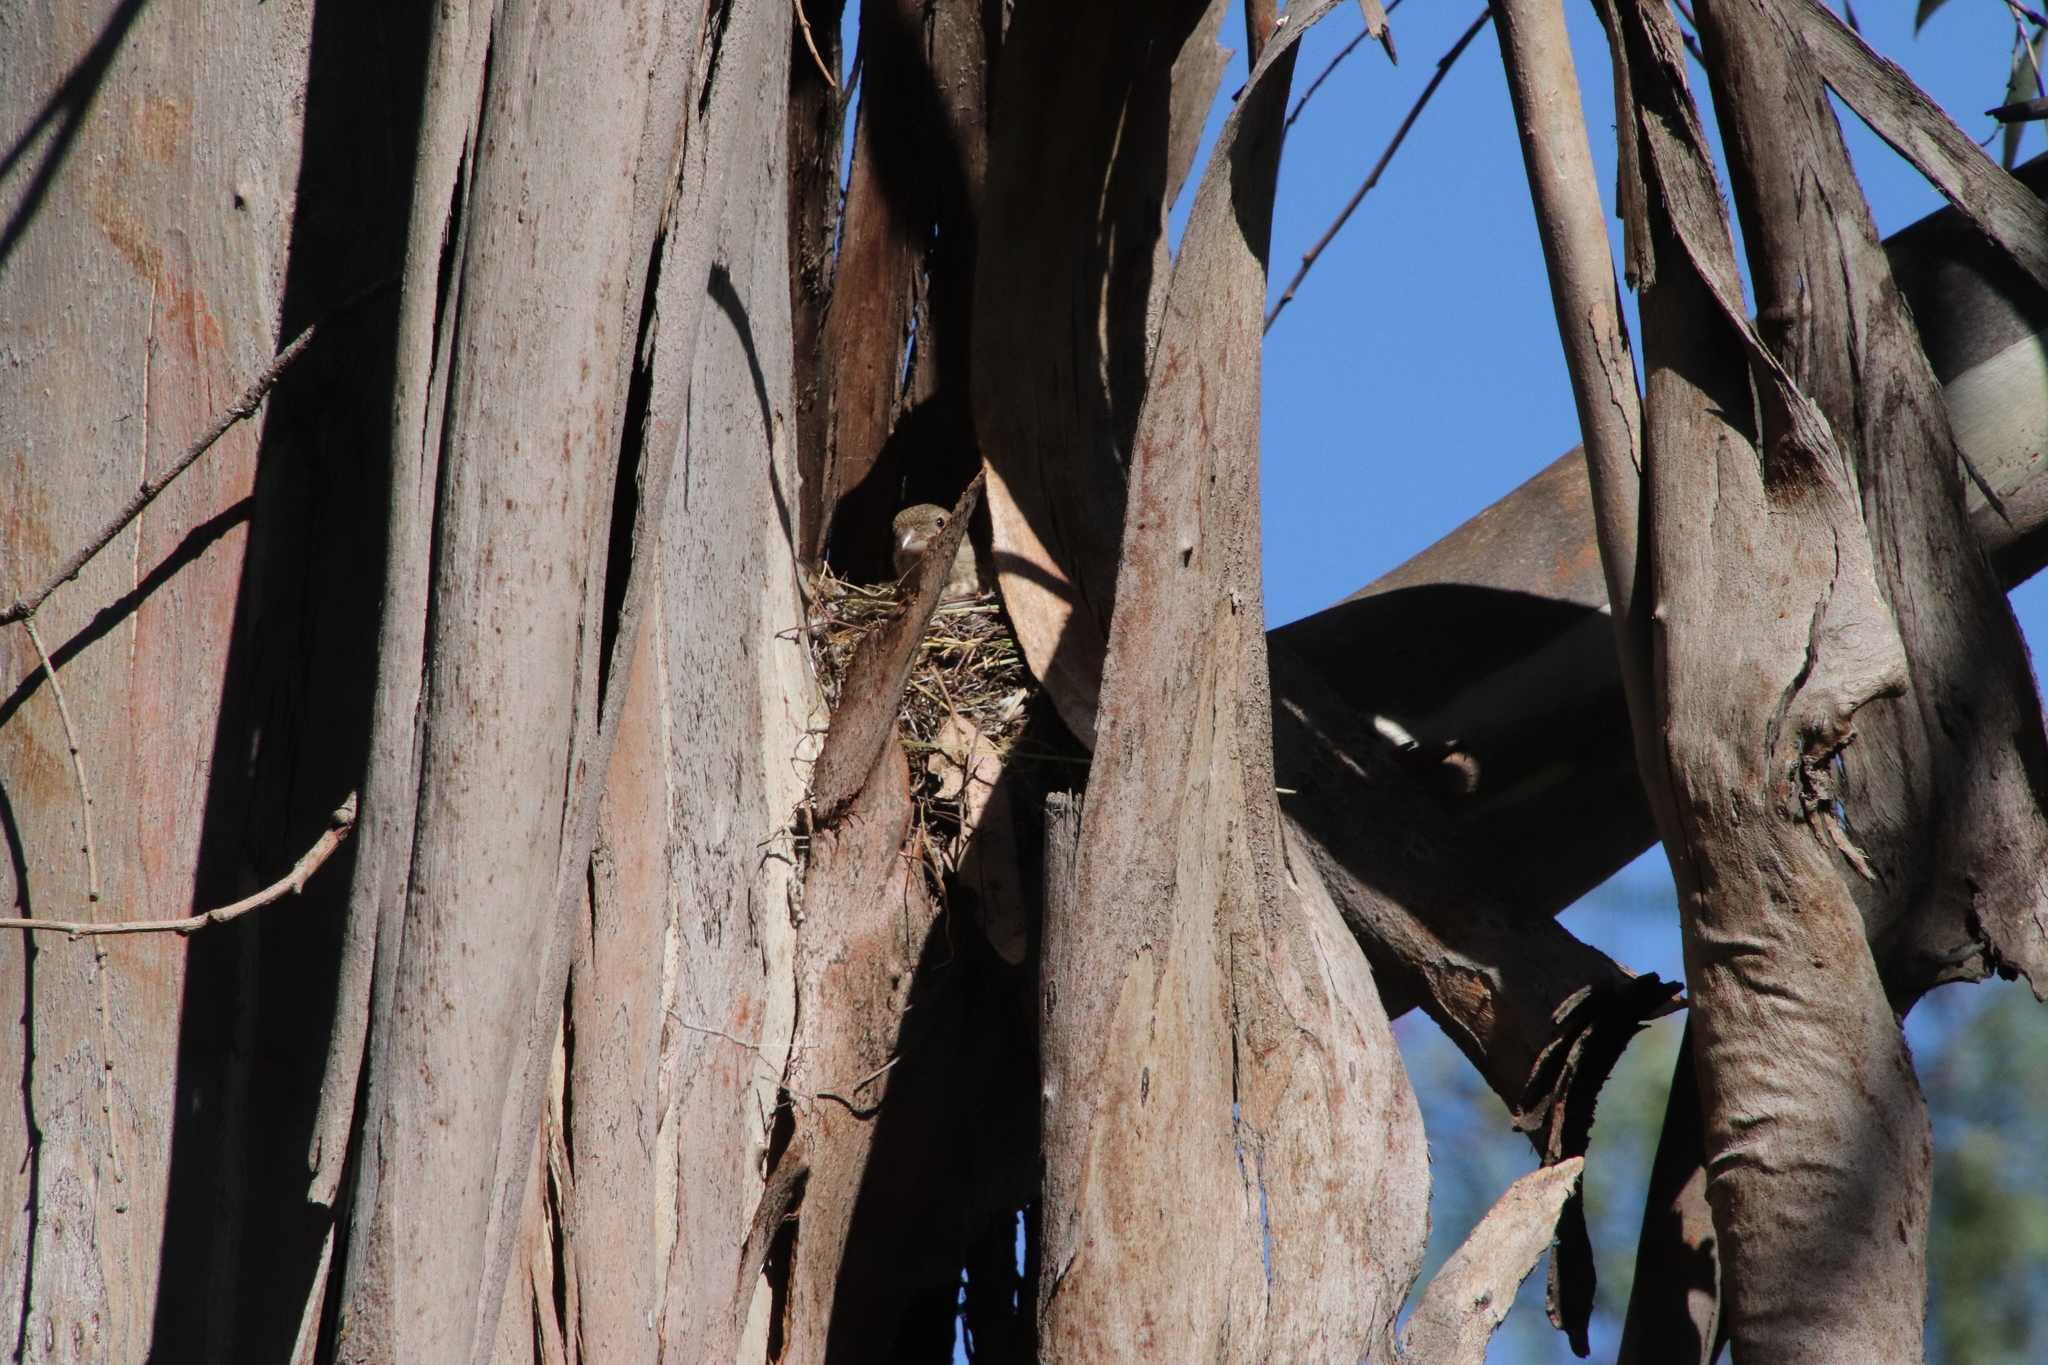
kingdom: Animalia
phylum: Chordata
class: Aves
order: Passeriformes
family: Fringillidae
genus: Haemorhous
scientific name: Haemorhous mexicanus
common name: House finch
